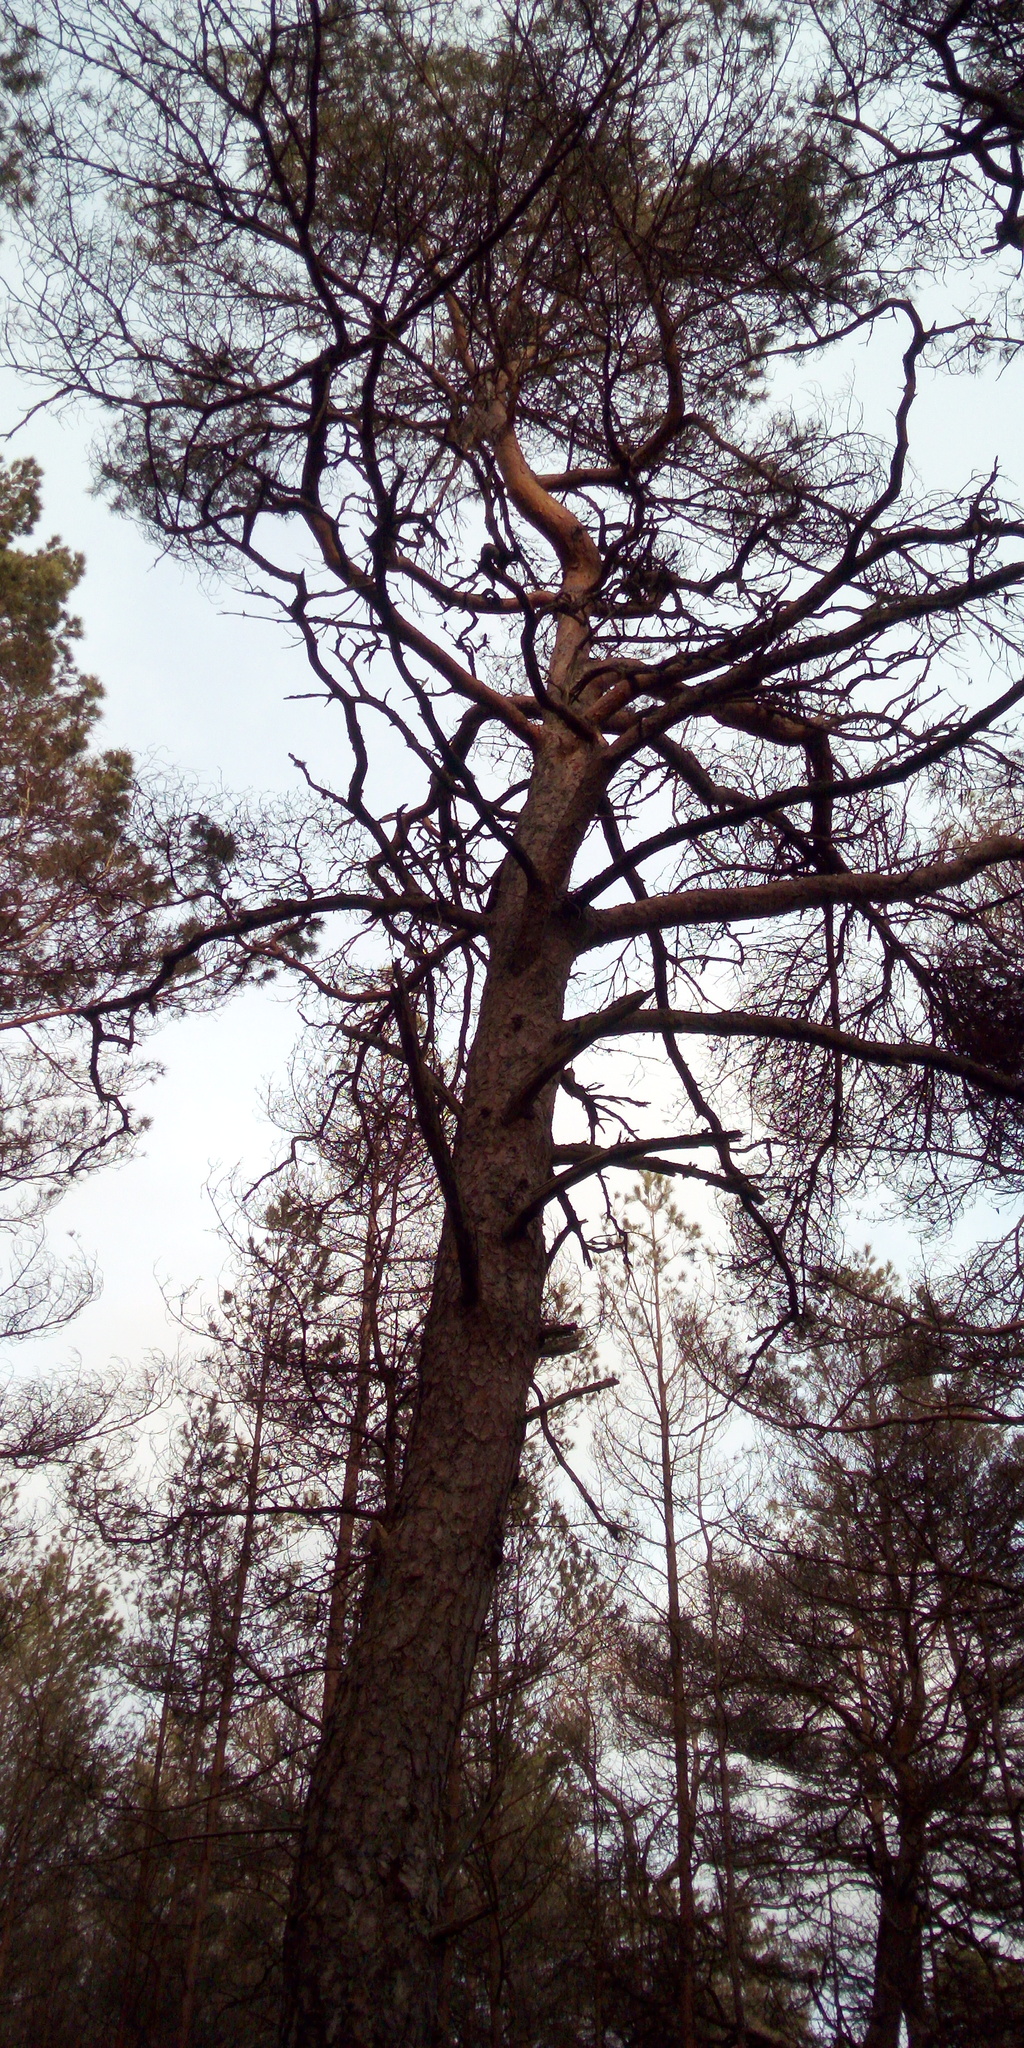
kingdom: Plantae
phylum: Tracheophyta
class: Pinopsida
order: Pinales
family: Pinaceae
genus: Pinus
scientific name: Pinus sylvestris
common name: Scots pine
